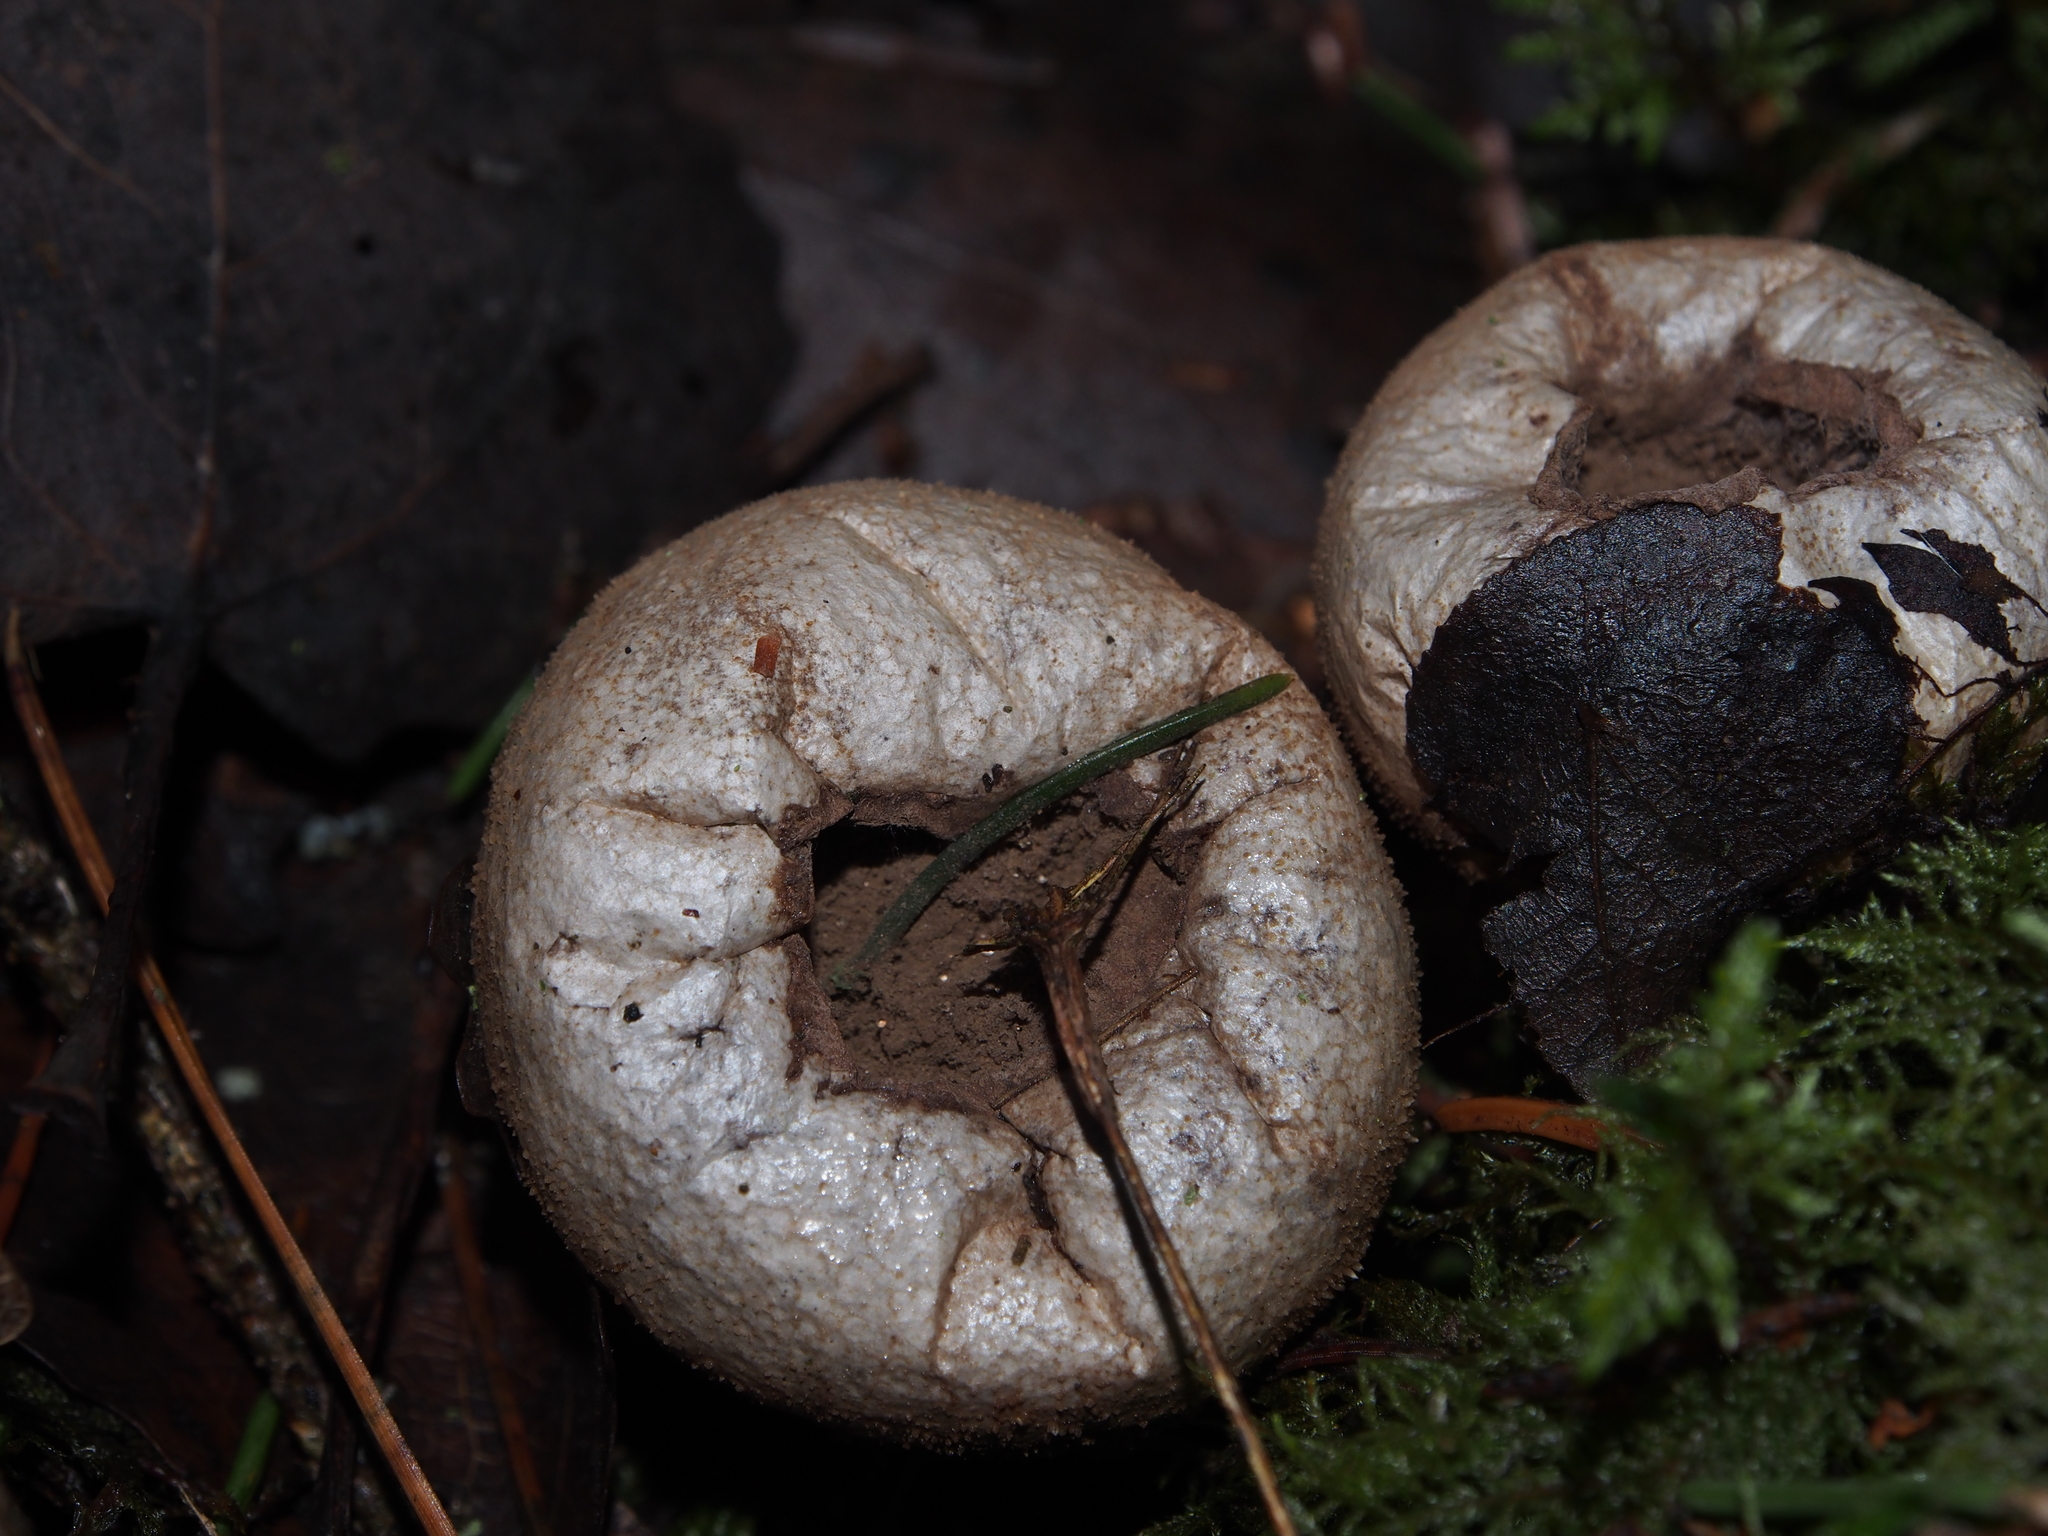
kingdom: Fungi
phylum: Basidiomycota
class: Agaricomycetes
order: Agaricales
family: Lycoperdaceae
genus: Lycoperdon
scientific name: Lycoperdon perlatum
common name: Common puffball
